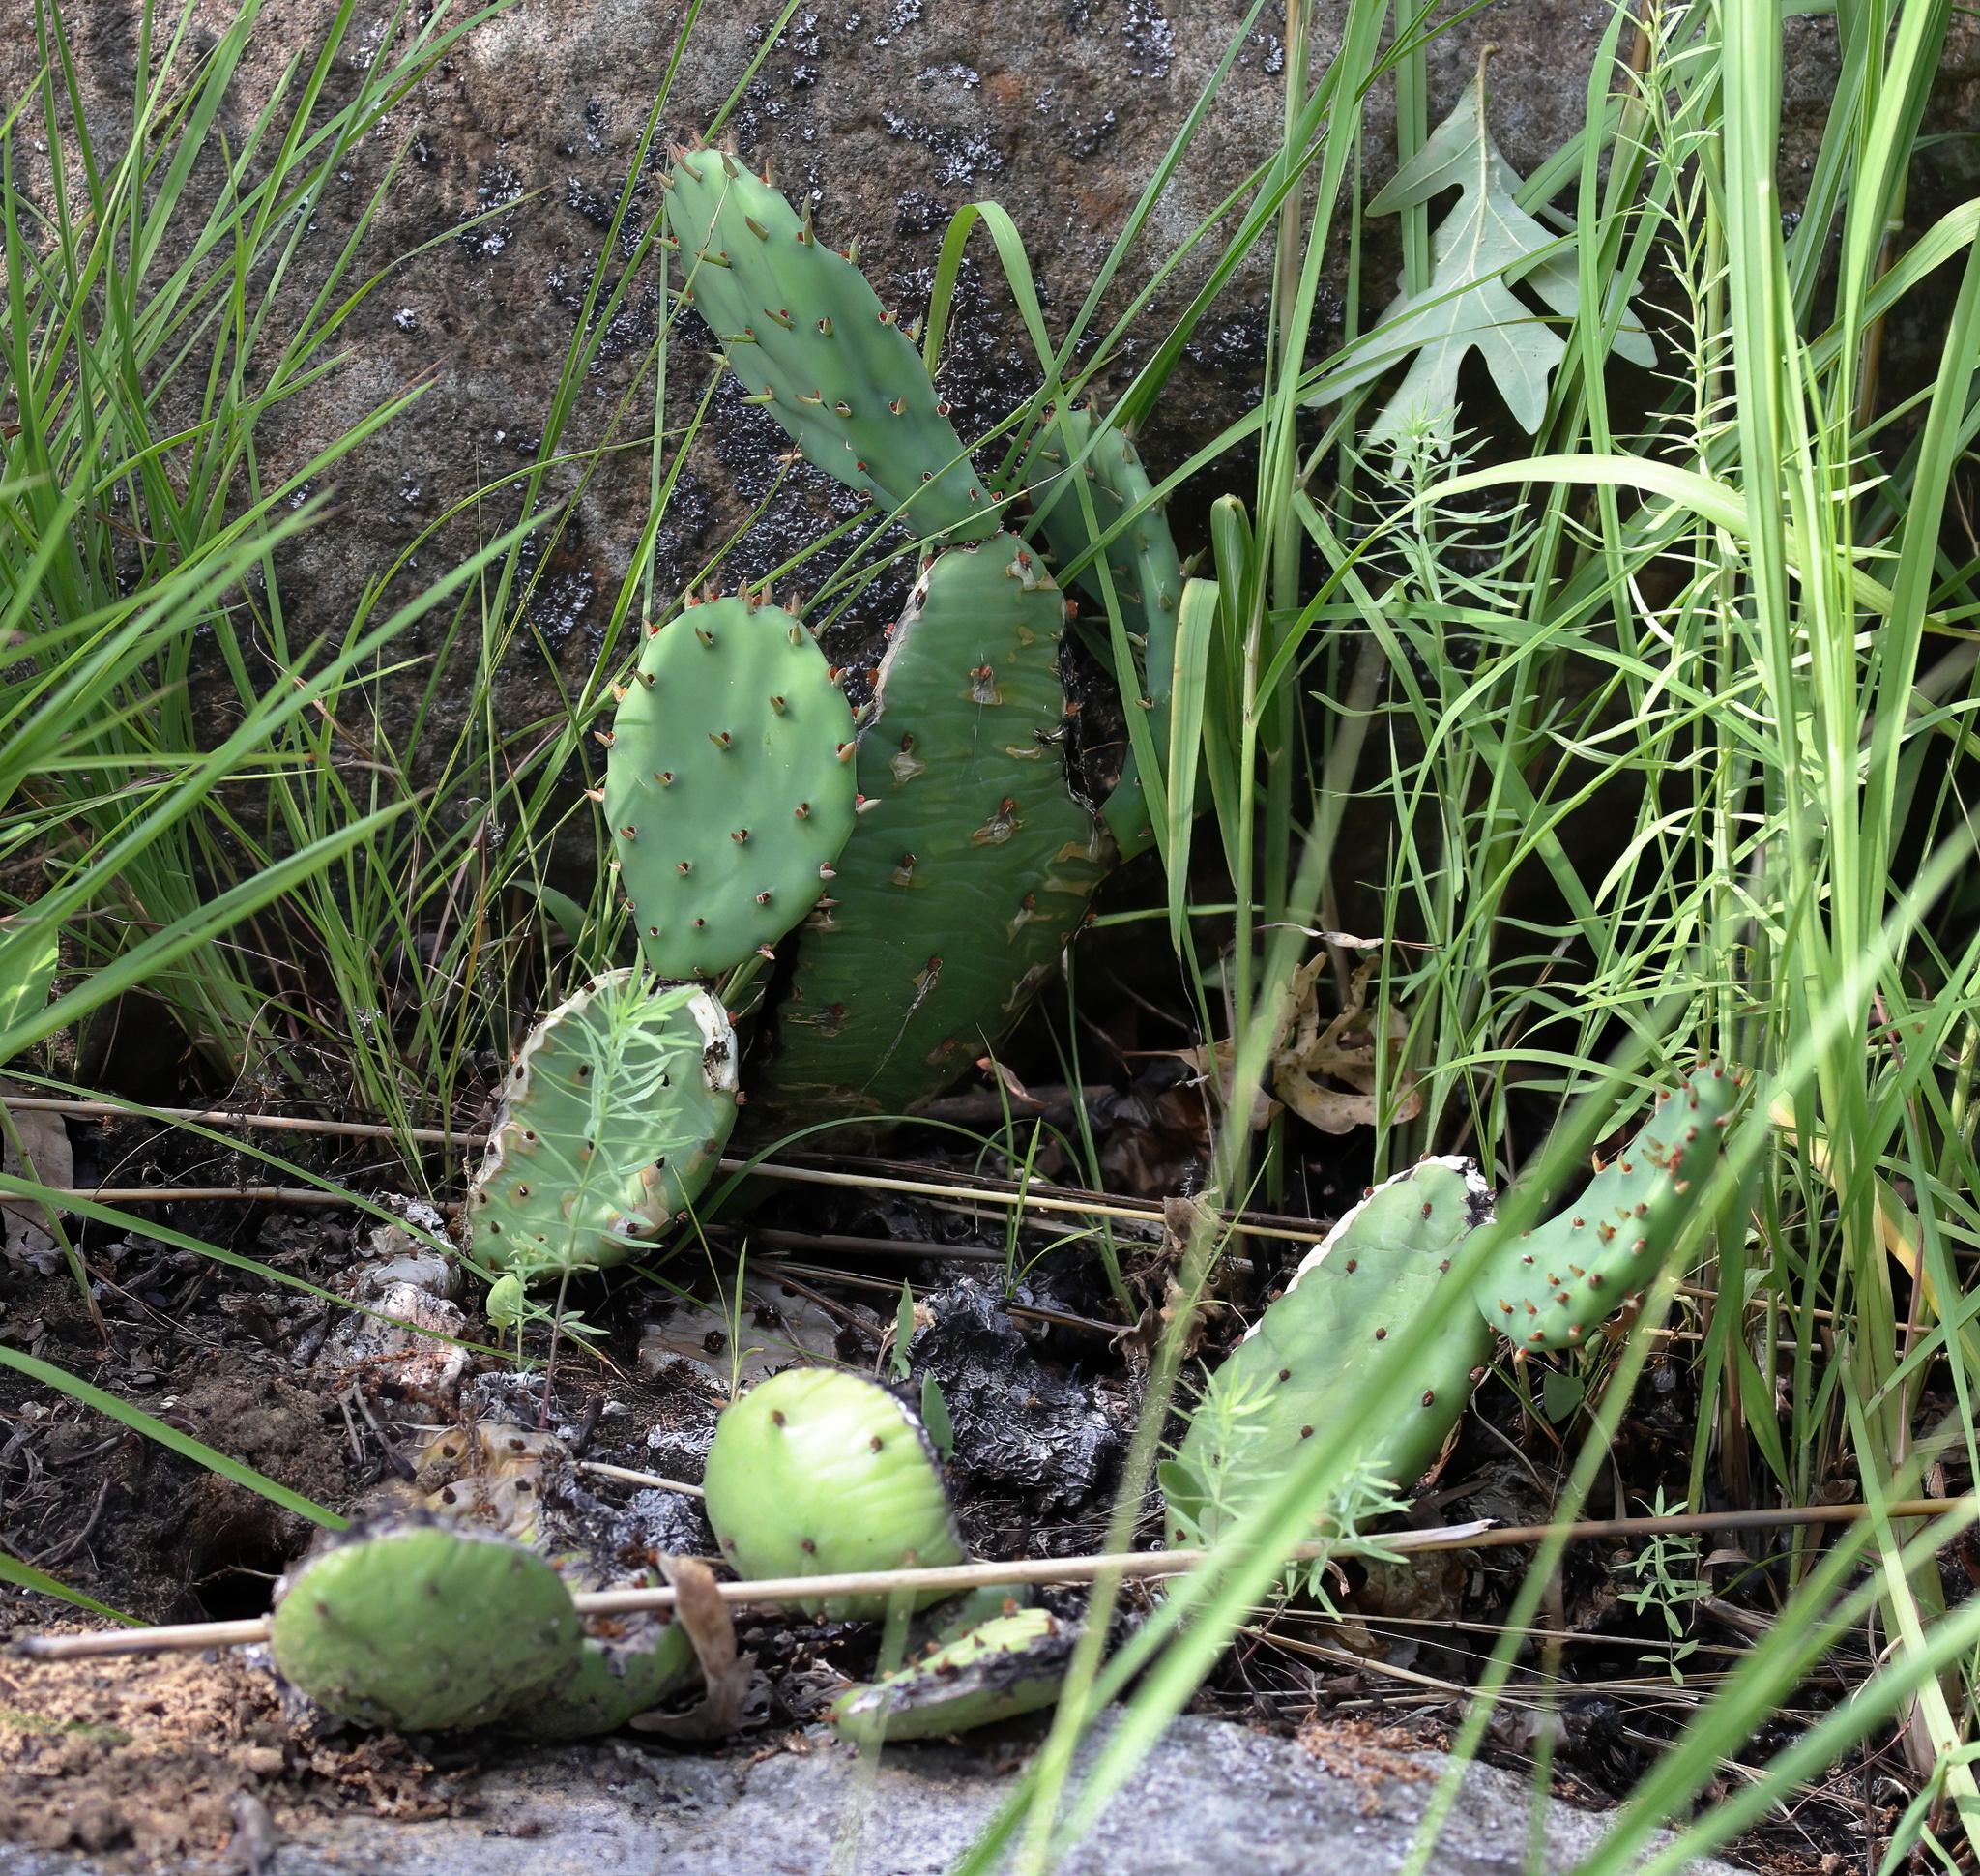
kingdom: Plantae
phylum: Tracheophyta
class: Magnoliopsida
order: Caryophyllales
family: Cactaceae
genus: Opuntia
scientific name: Opuntia humifusa
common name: Eastern prickly-pear
